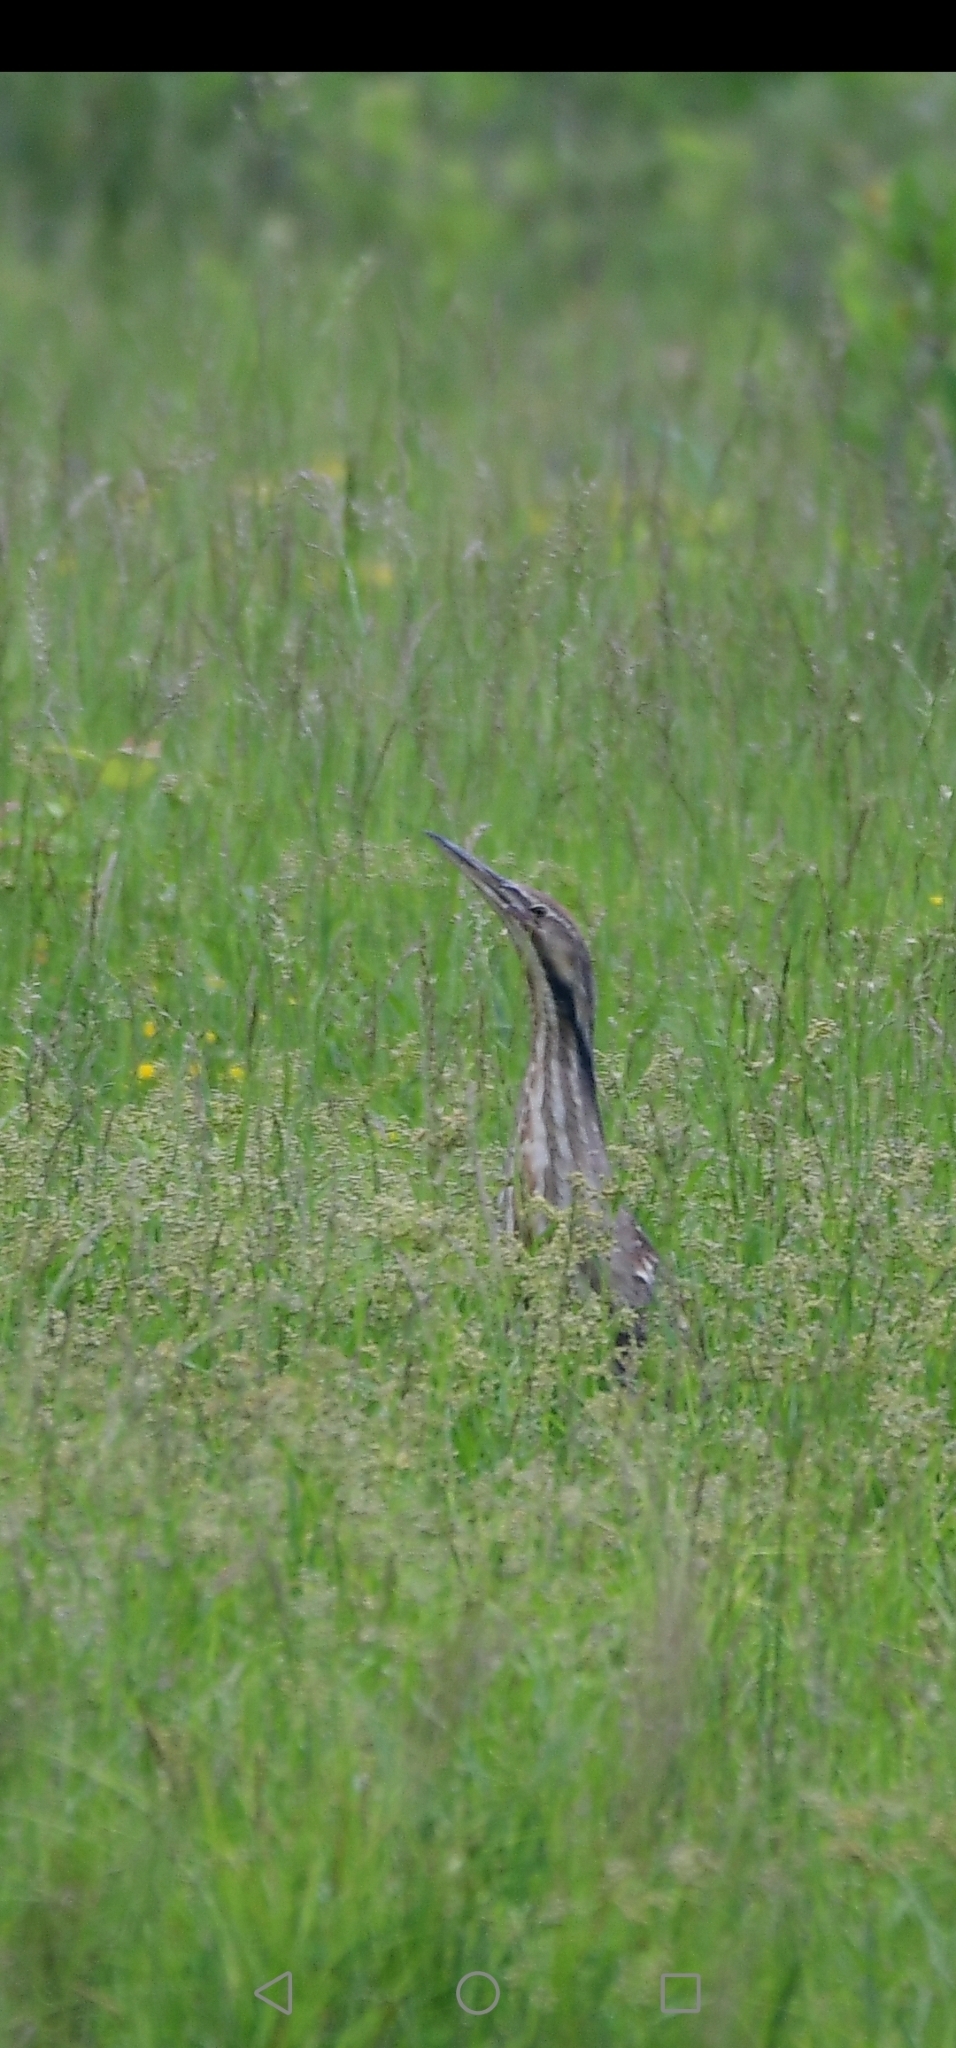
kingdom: Animalia
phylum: Chordata
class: Aves
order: Pelecaniformes
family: Ardeidae
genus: Botaurus
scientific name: Botaurus lentiginosus
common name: American bittern
